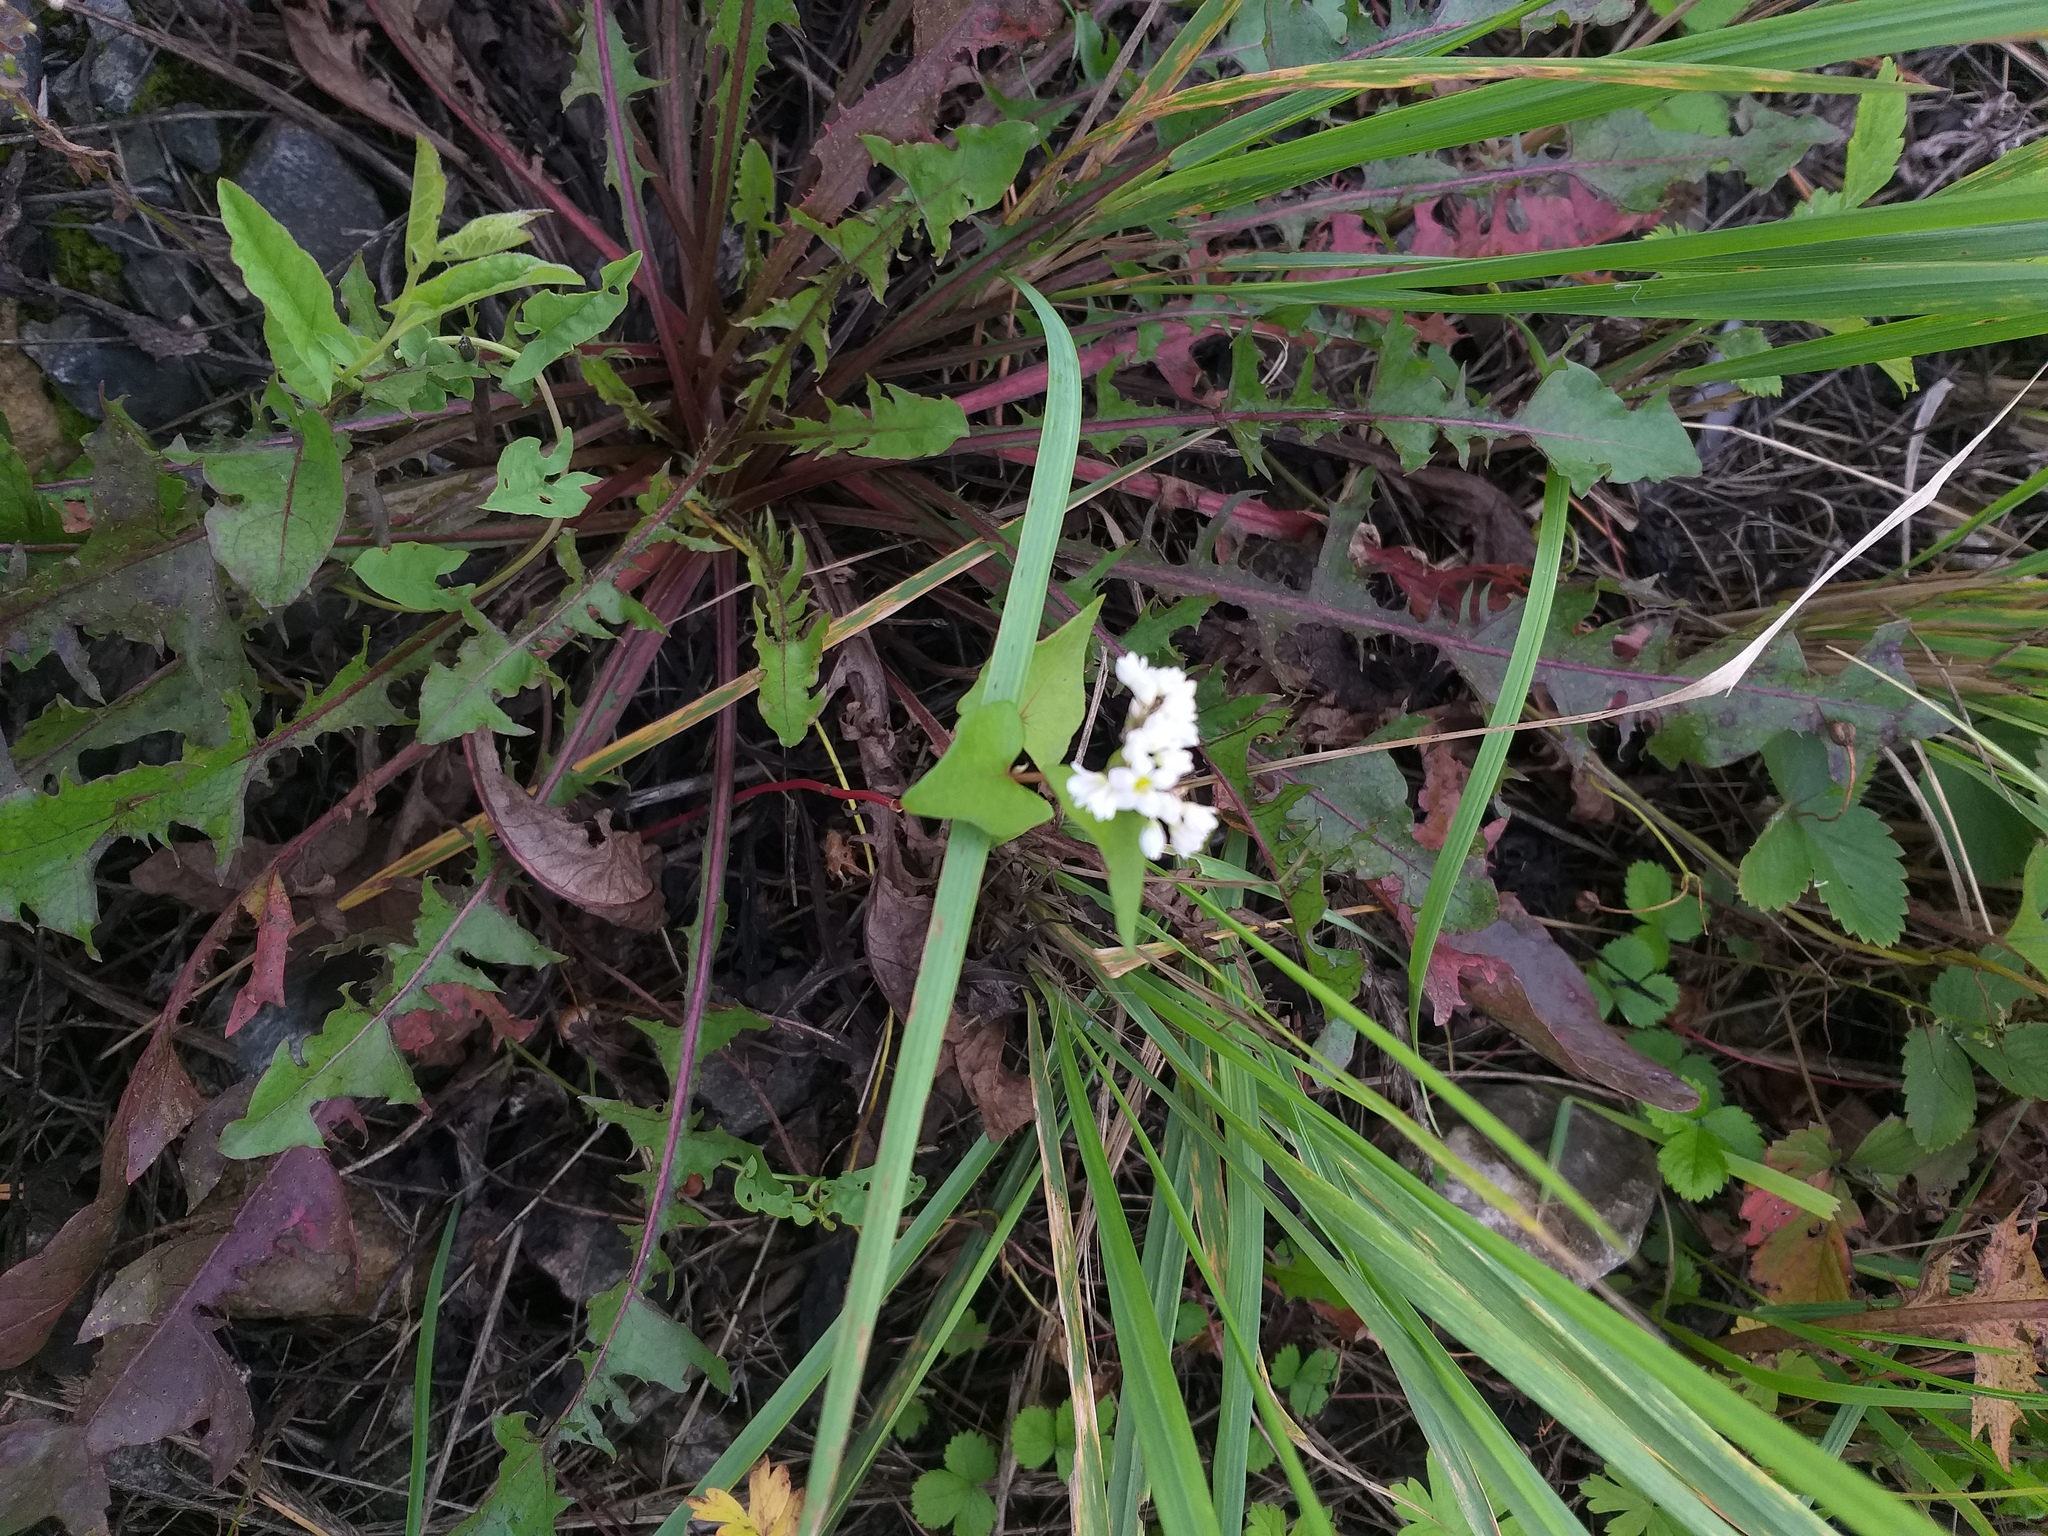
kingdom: Plantae
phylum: Tracheophyta
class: Magnoliopsida
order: Caryophyllales
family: Polygonaceae
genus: Fagopyrum
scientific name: Fagopyrum esculentum
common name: Buckwheat
